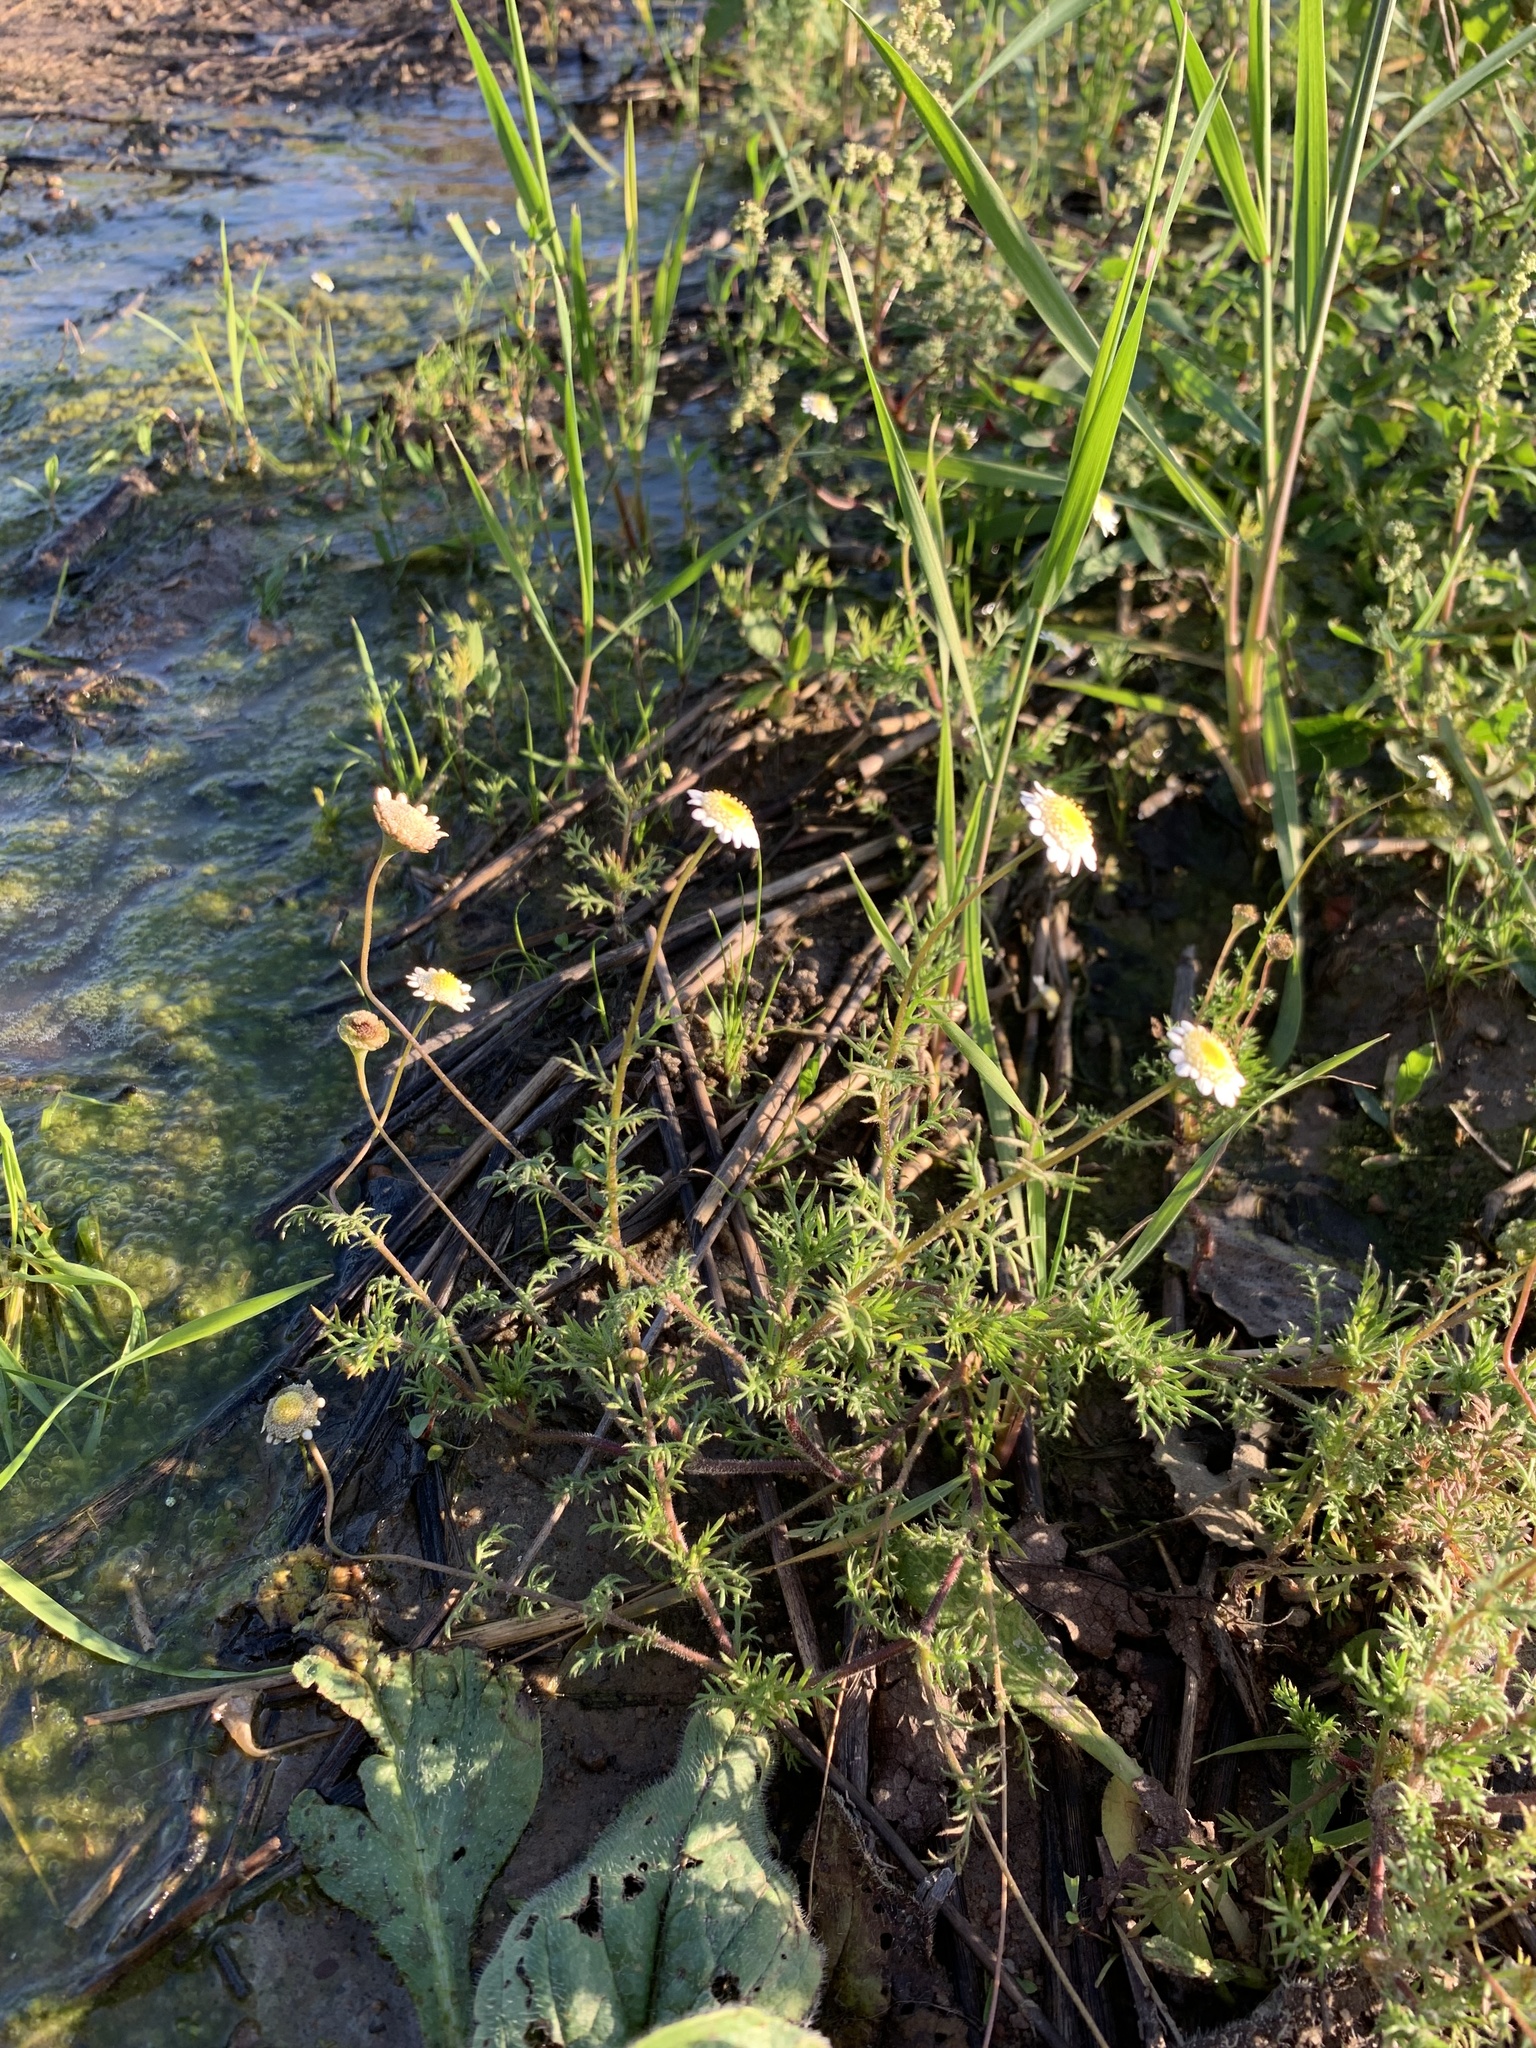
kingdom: Plantae
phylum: Tracheophyta
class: Magnoliopsida
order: Asterales
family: Asteraceae
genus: Cotula
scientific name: Cotula turbinata
